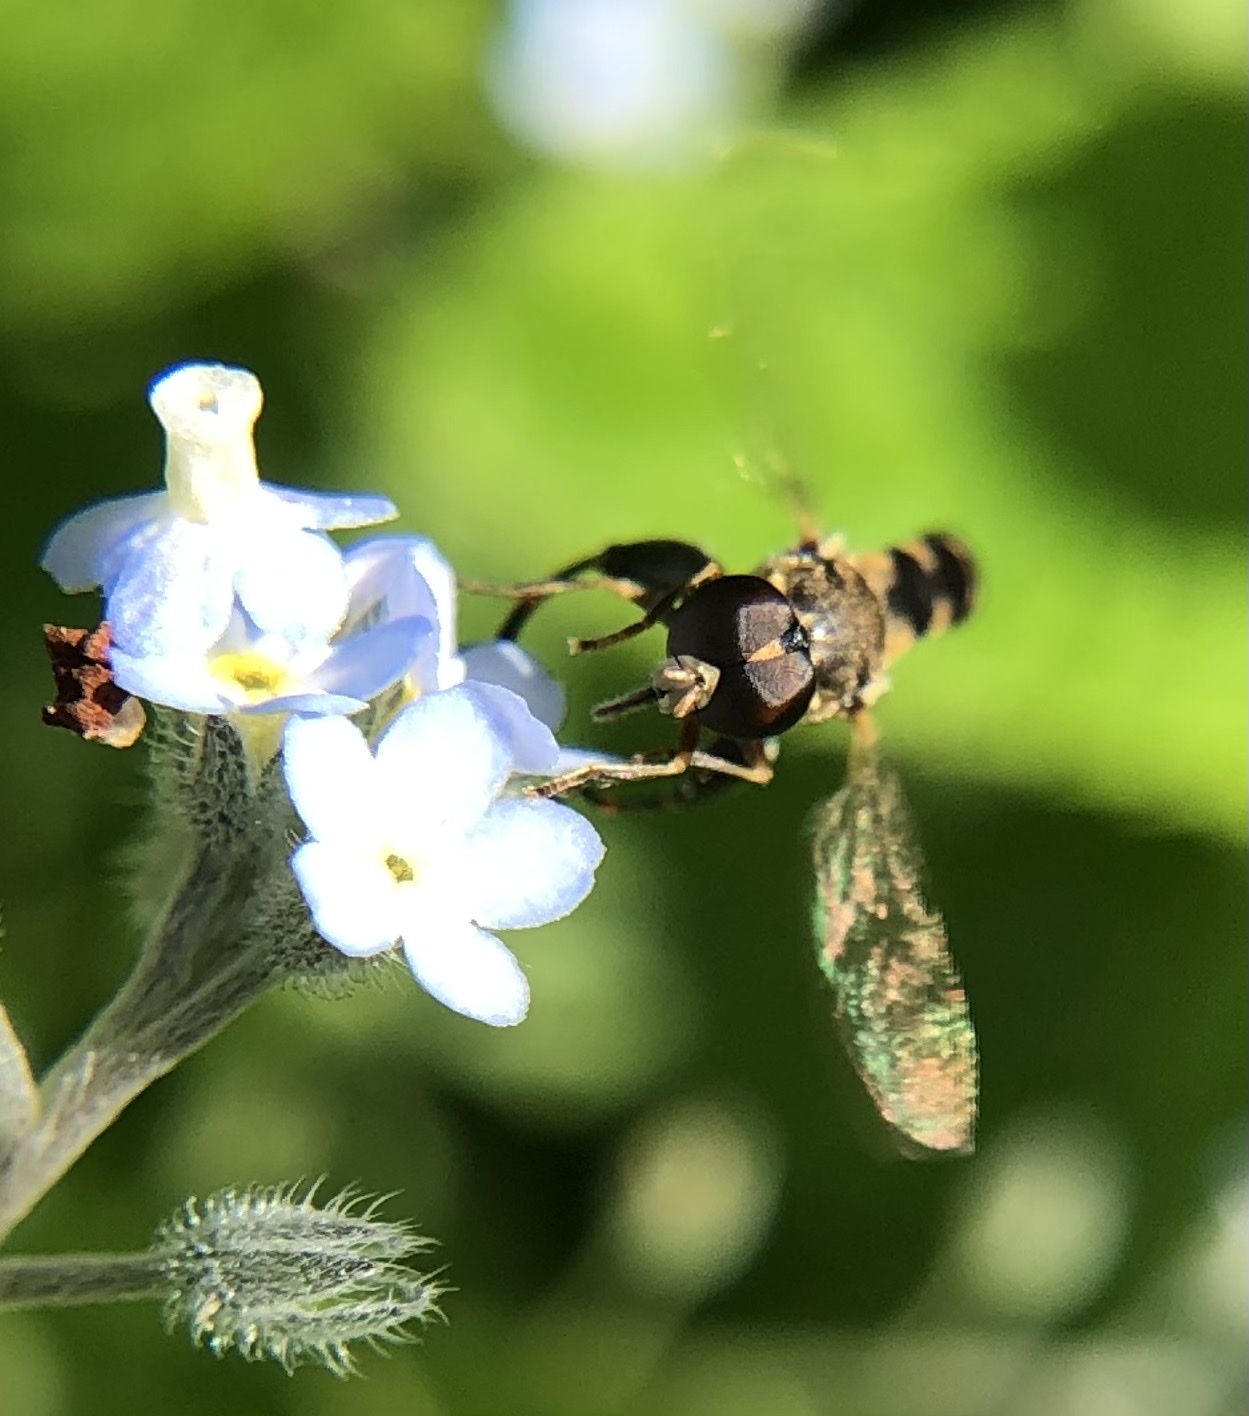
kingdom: Animalia
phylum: Arthropoda
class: Insecta
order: Diptera
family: Syrphidae
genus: Syritta
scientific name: Syritta pipiens
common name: Hover fly
